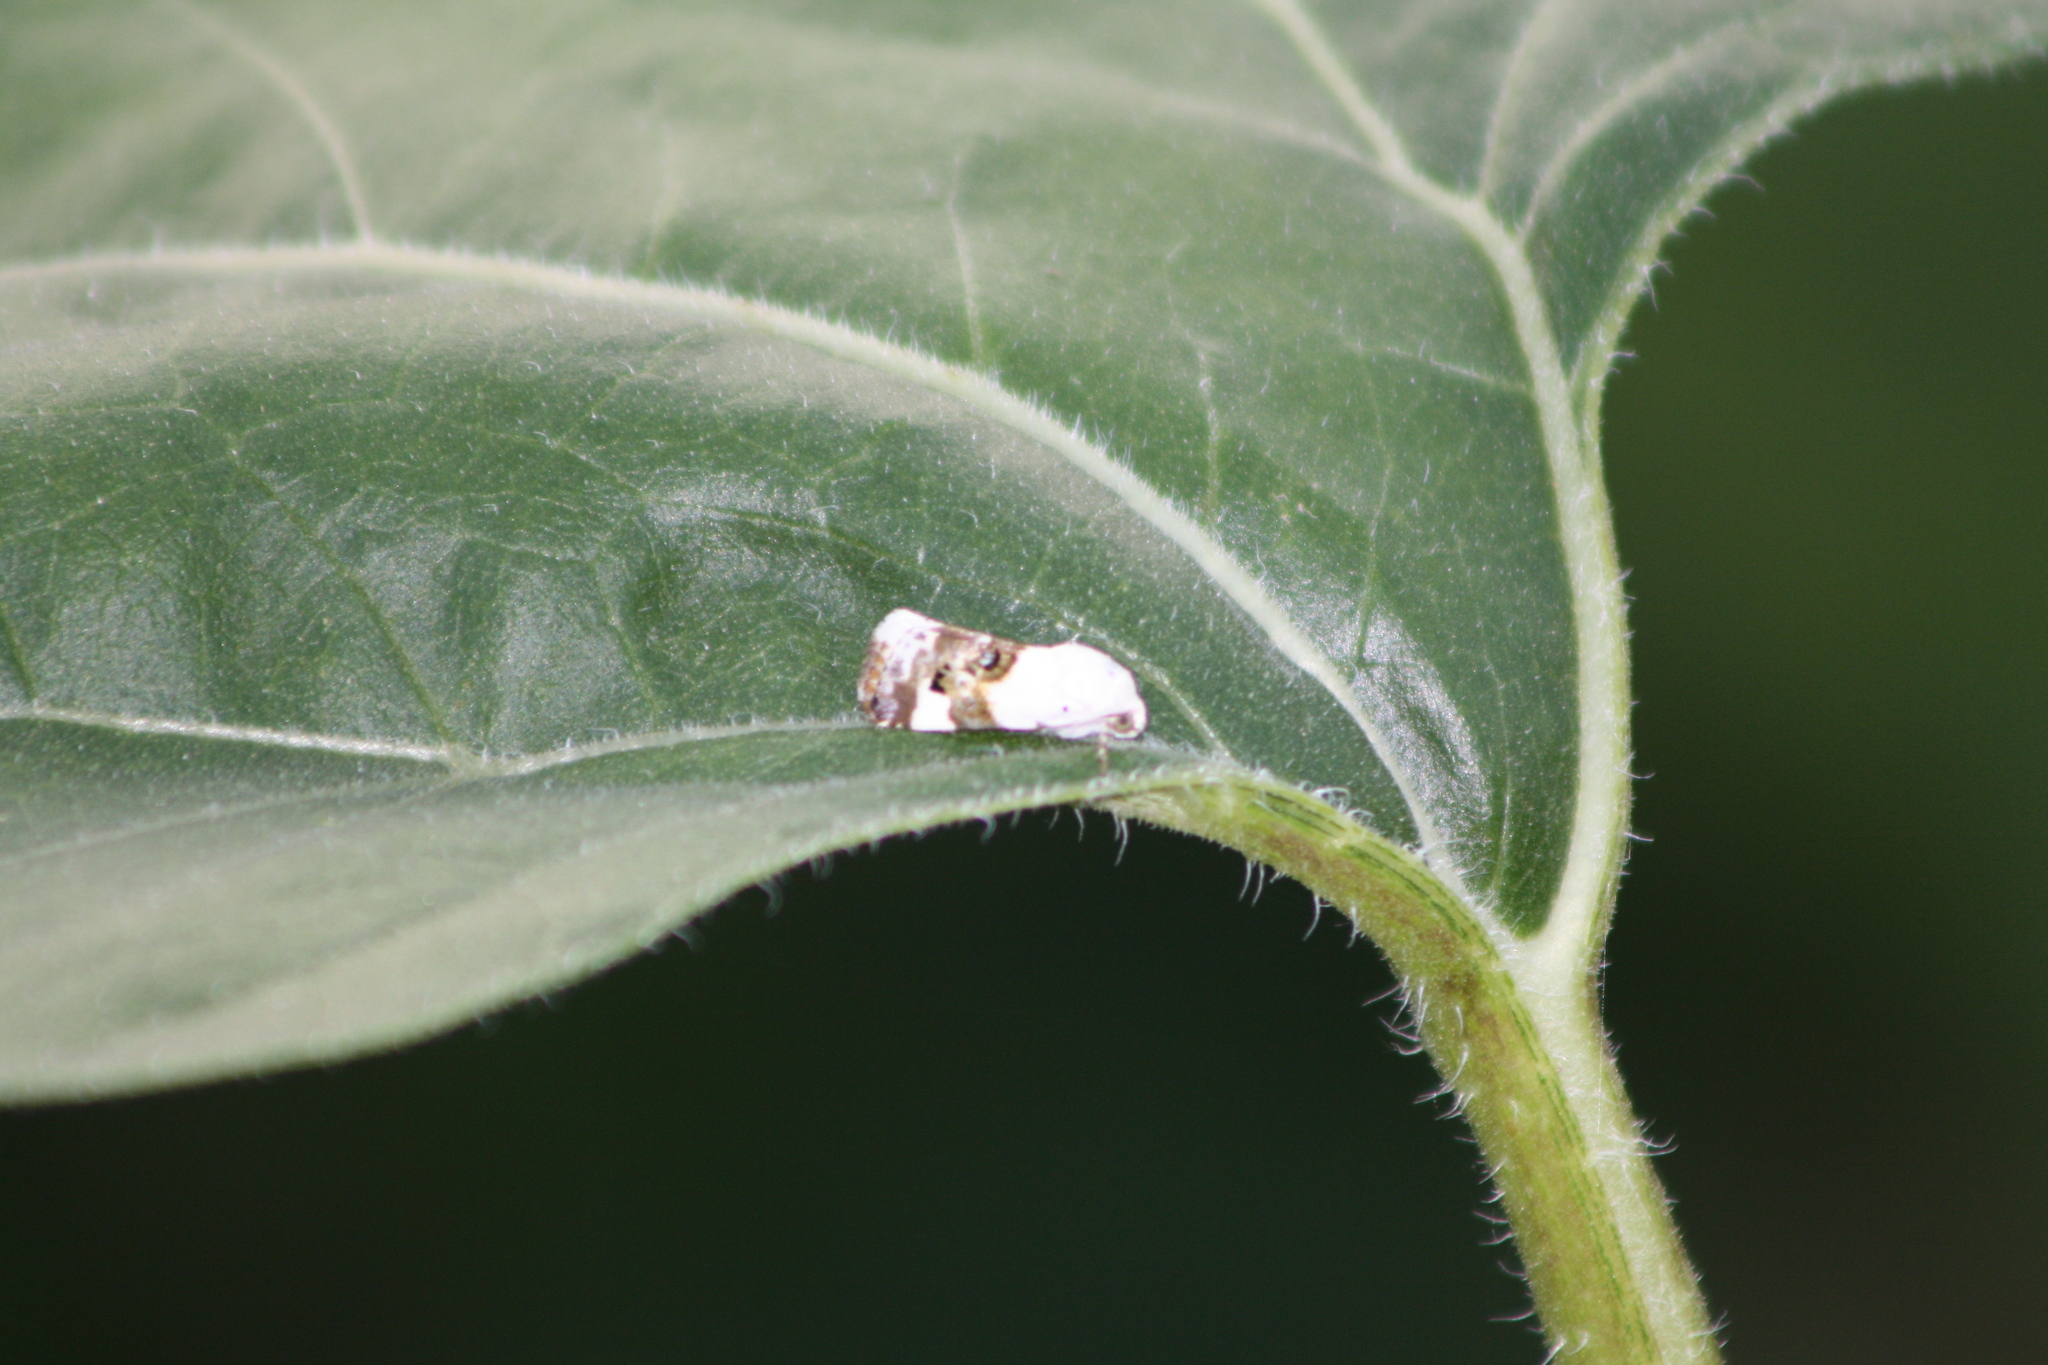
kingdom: Animalia
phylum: Arthropoda
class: Insecta
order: Lepidoptera
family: Noctuidae
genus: Acontia
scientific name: Acontia lucida
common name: Pale shoulder
